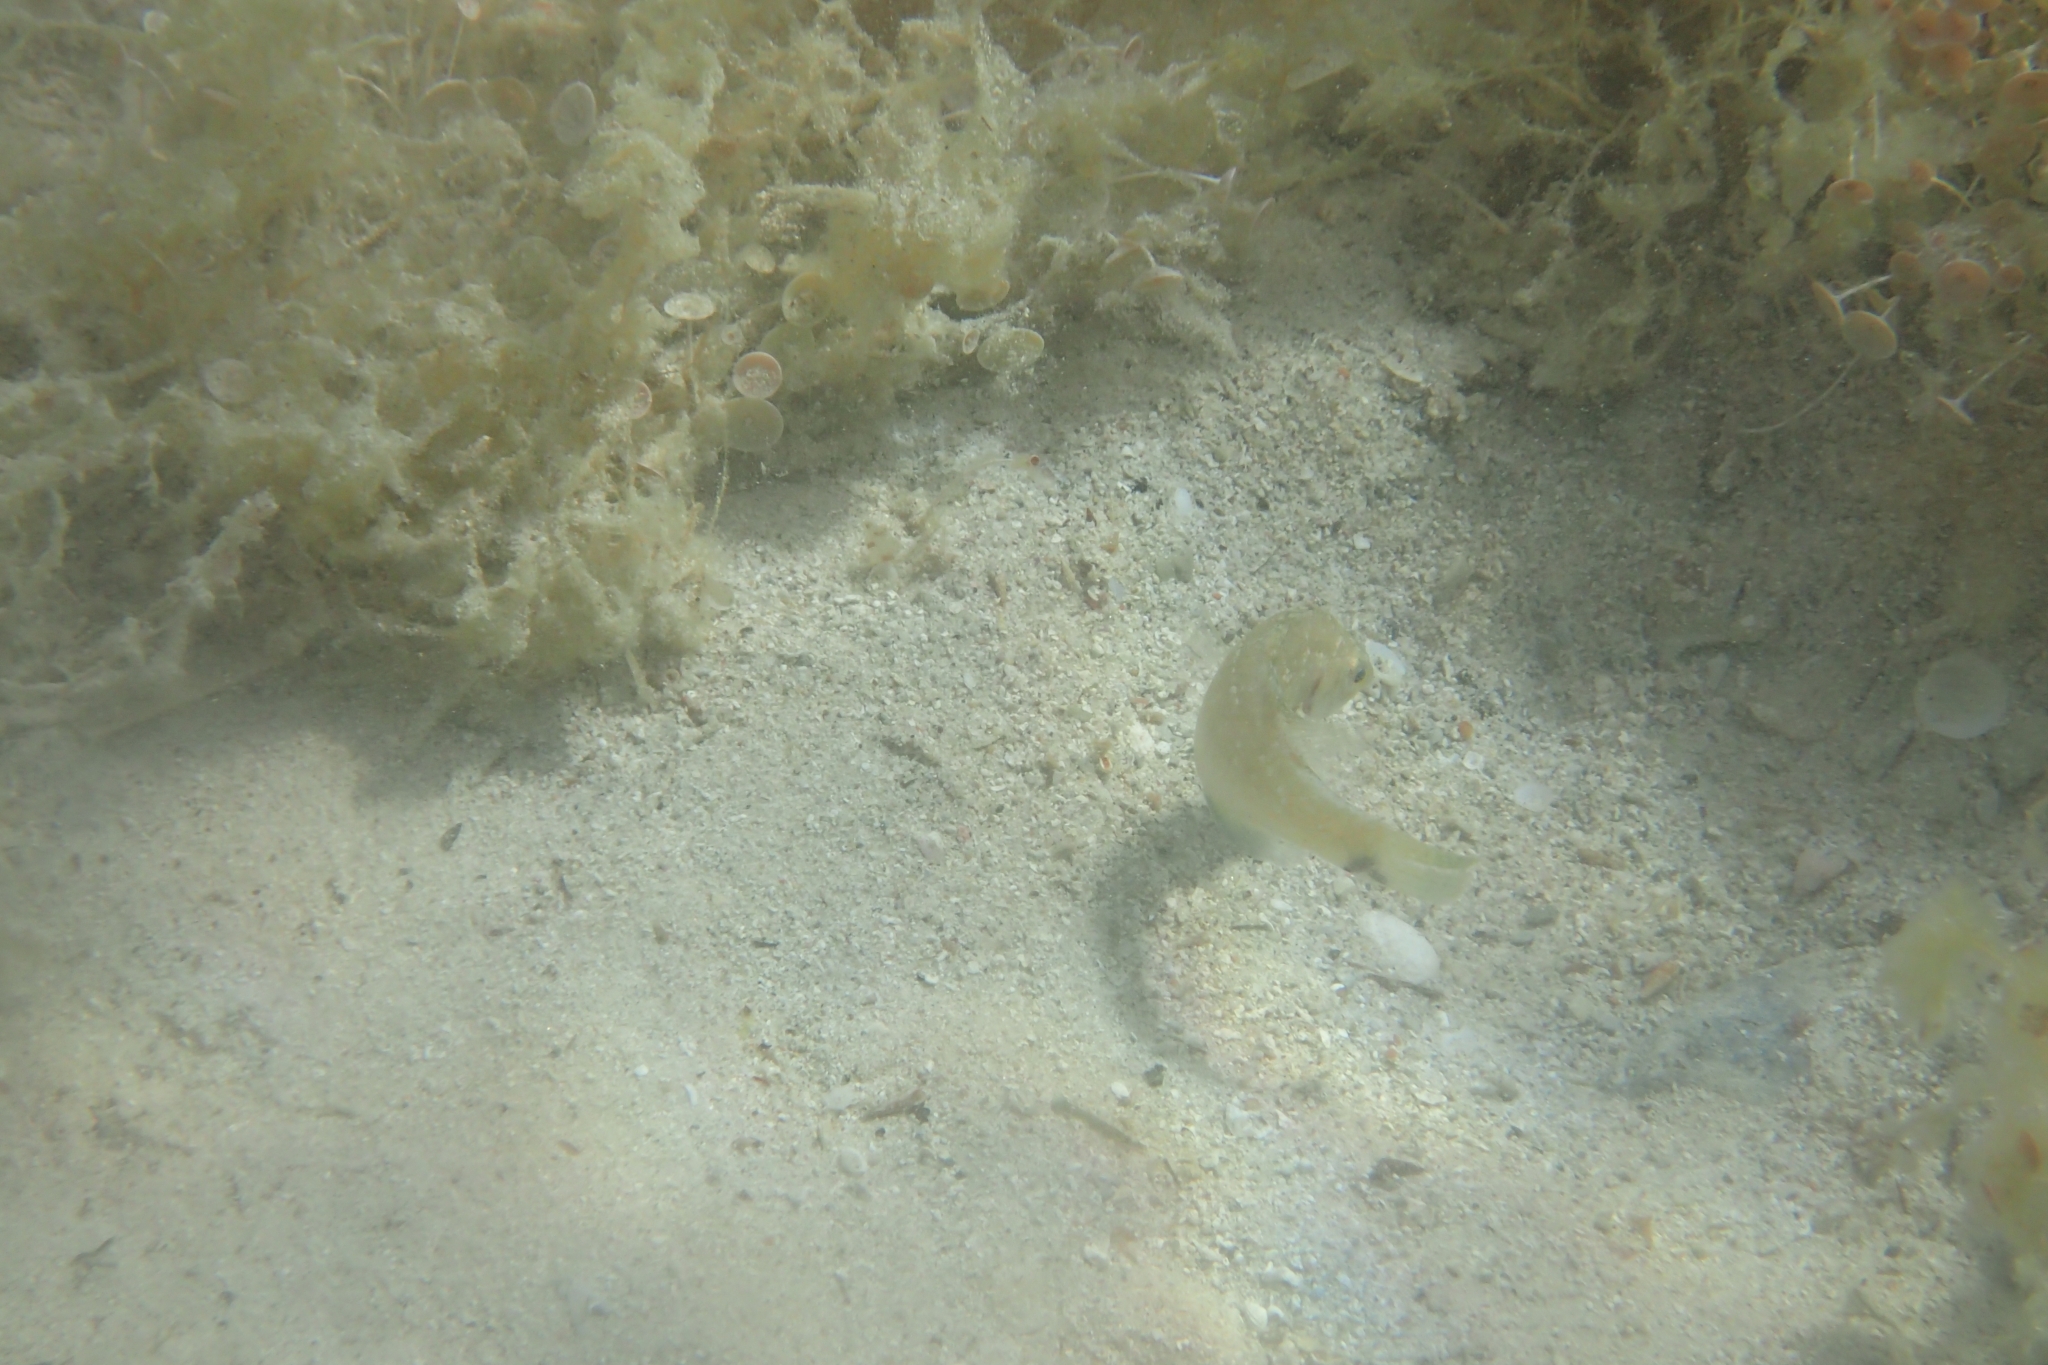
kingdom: Animalia
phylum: Chordata
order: Perciformes
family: Labridae
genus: Symphodus
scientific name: Symphodus cinereus
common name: Grey wrasse
